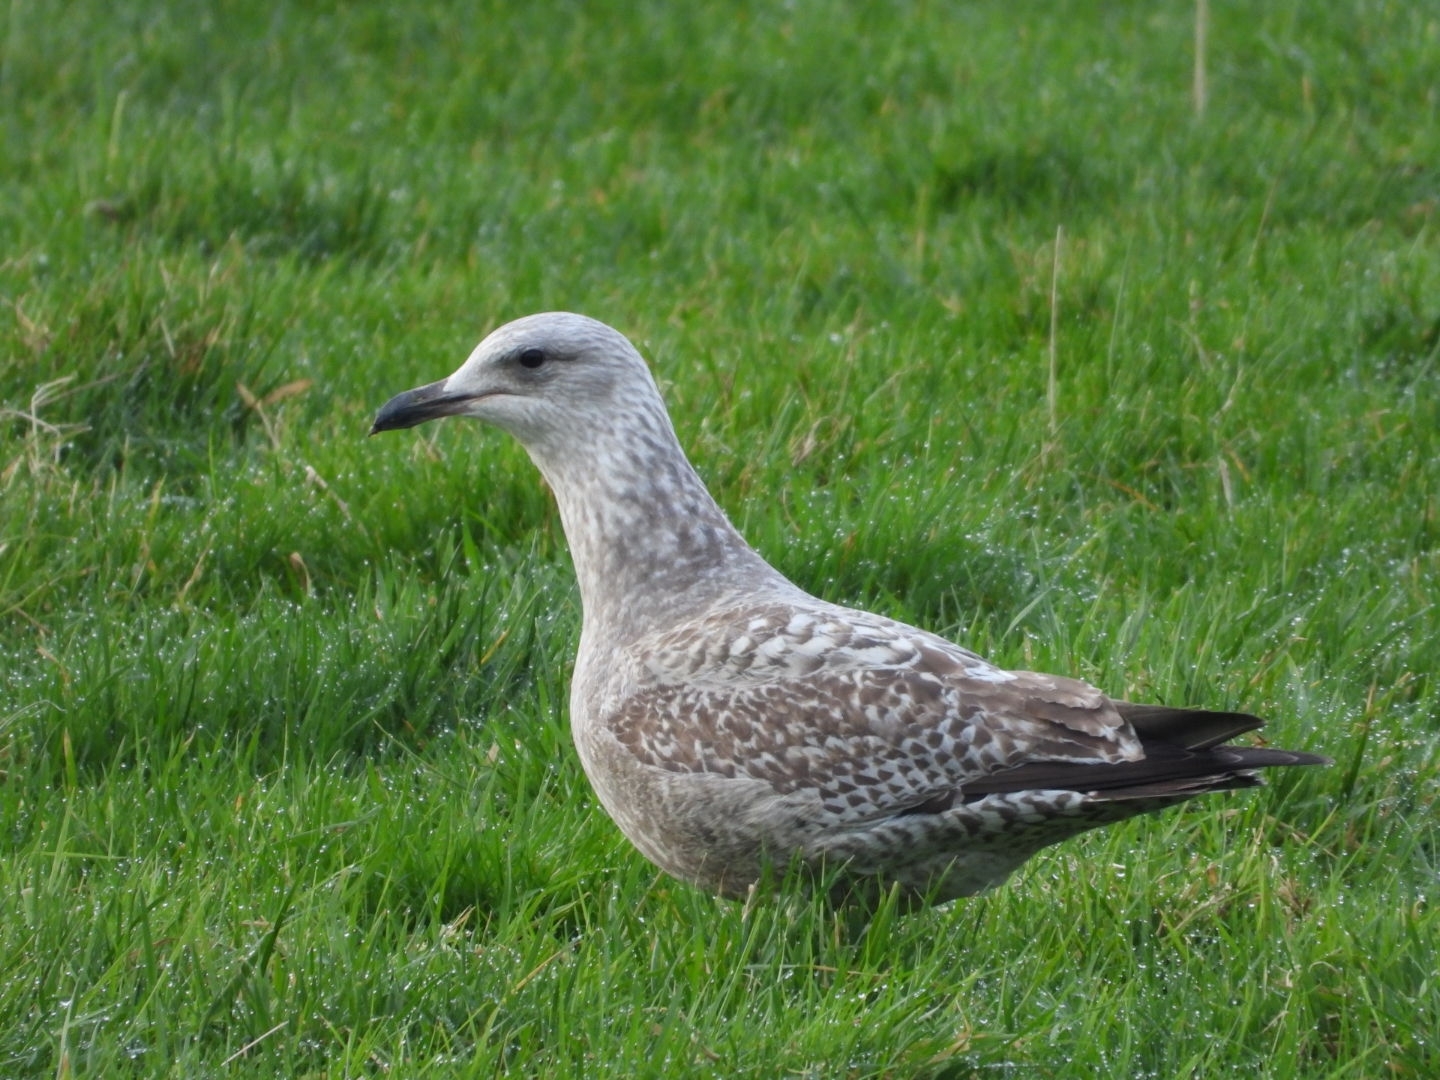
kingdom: Animalia
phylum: Chordata
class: Aves
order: Charadriiformes
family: Laridae
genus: Larus
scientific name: Larus argentatus
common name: Herring gull
